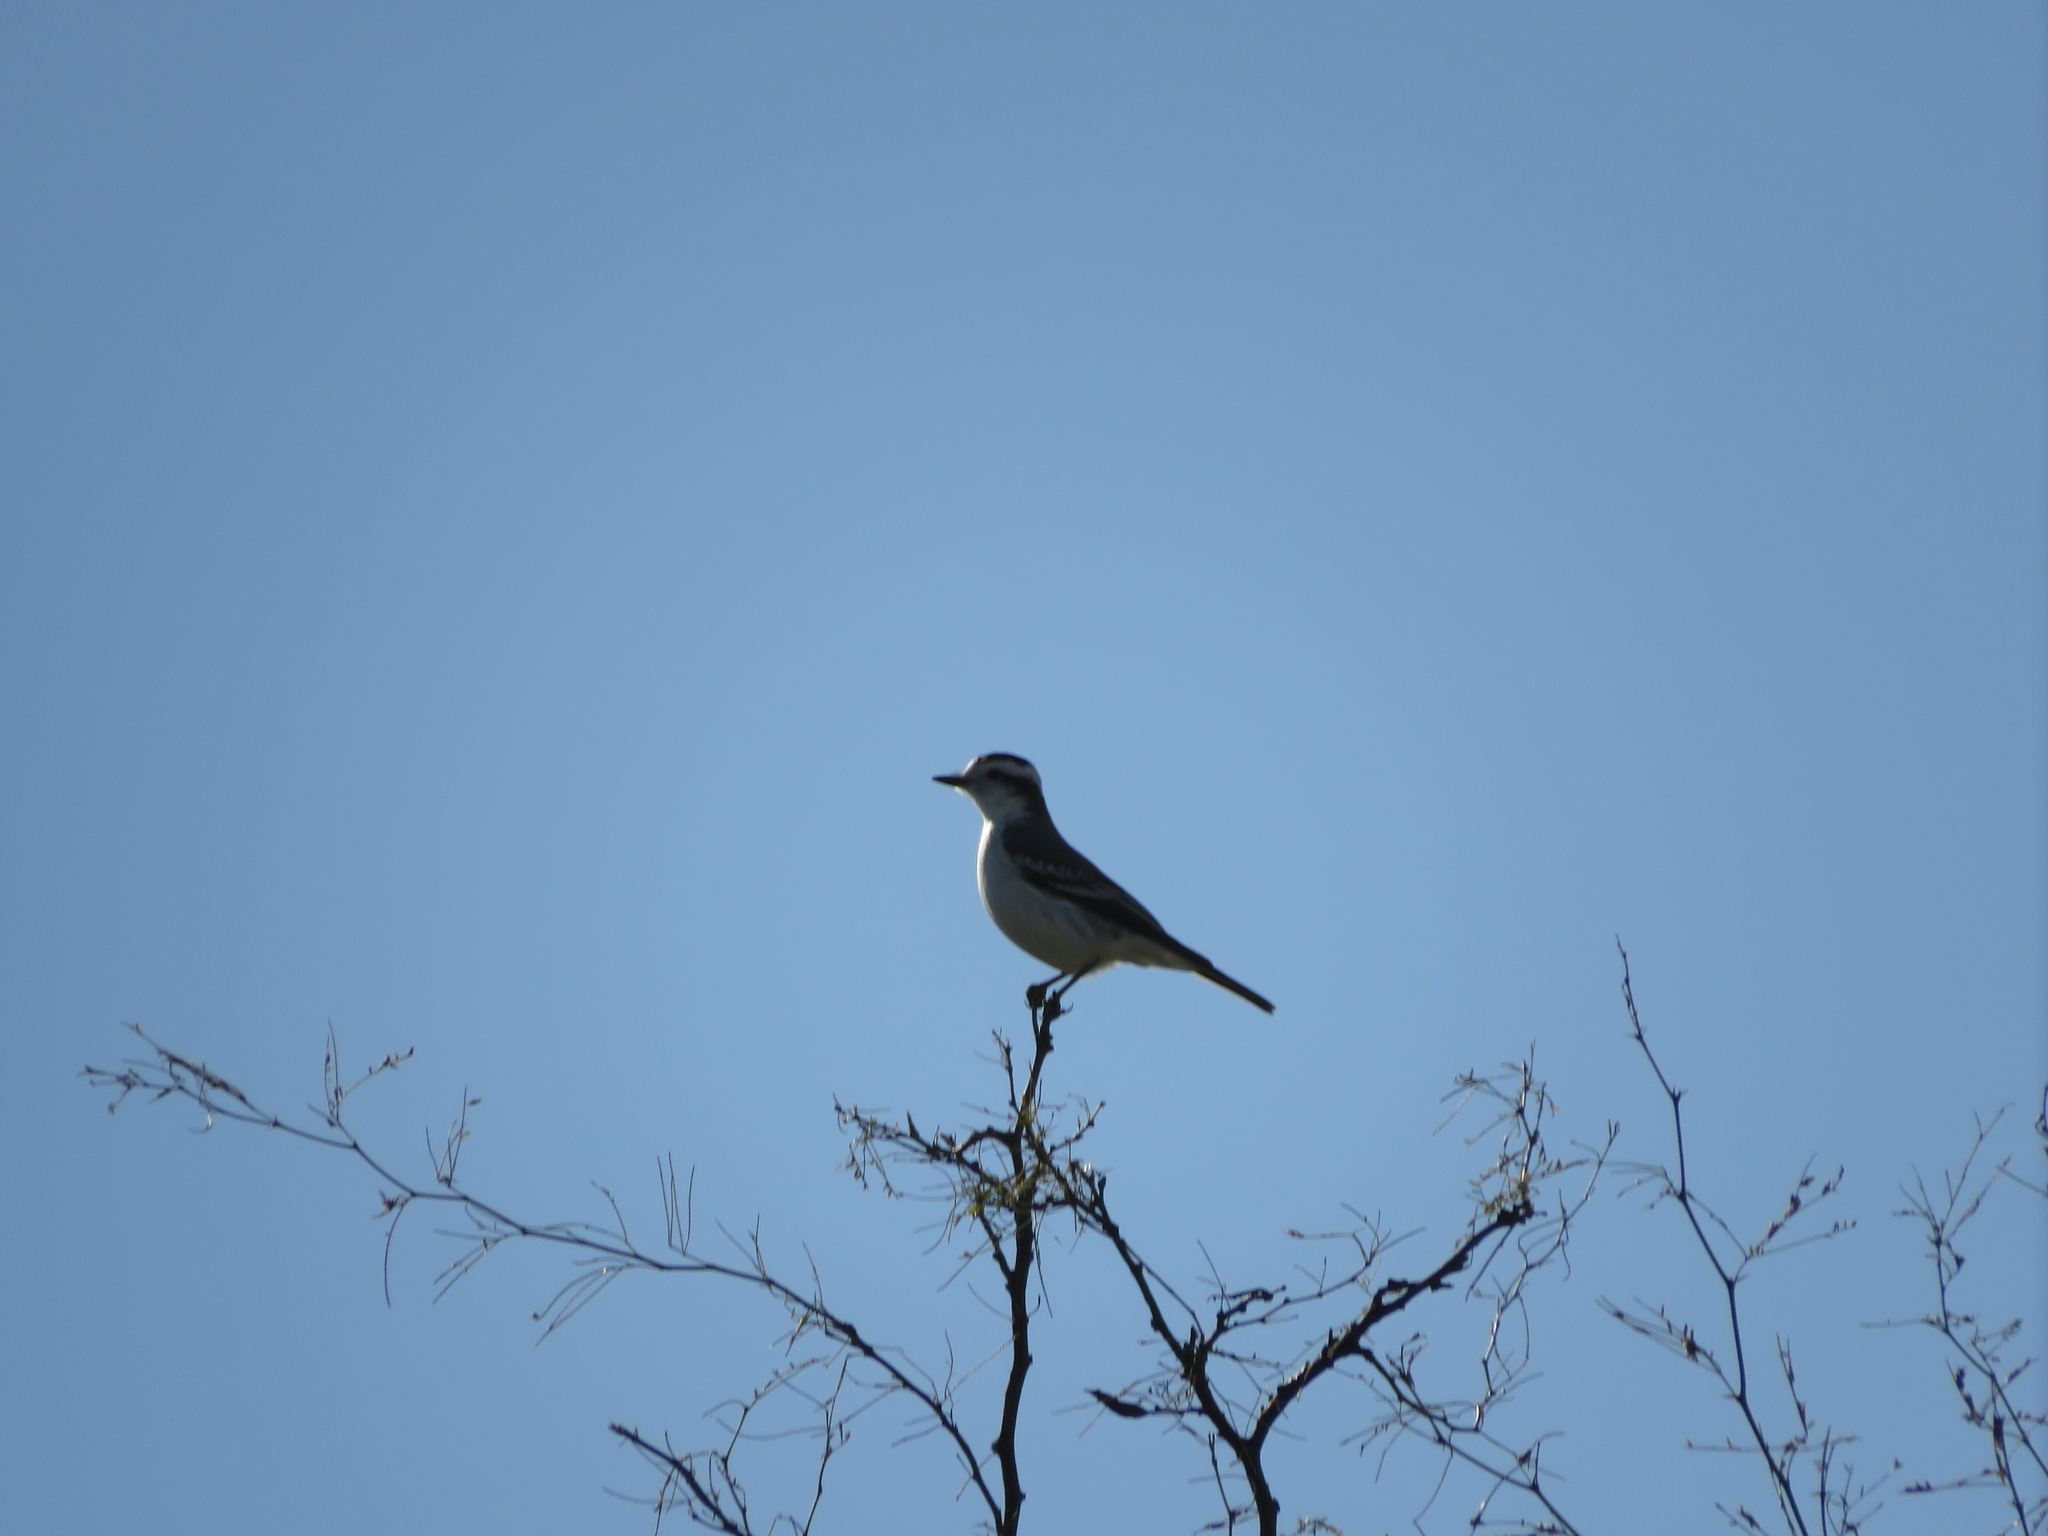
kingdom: Animalia
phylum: Chordata
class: Aves
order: Passeriformes
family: Tyrannidae
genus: Xolmis
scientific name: Xolmis coronatus
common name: Black-crowned monjita
